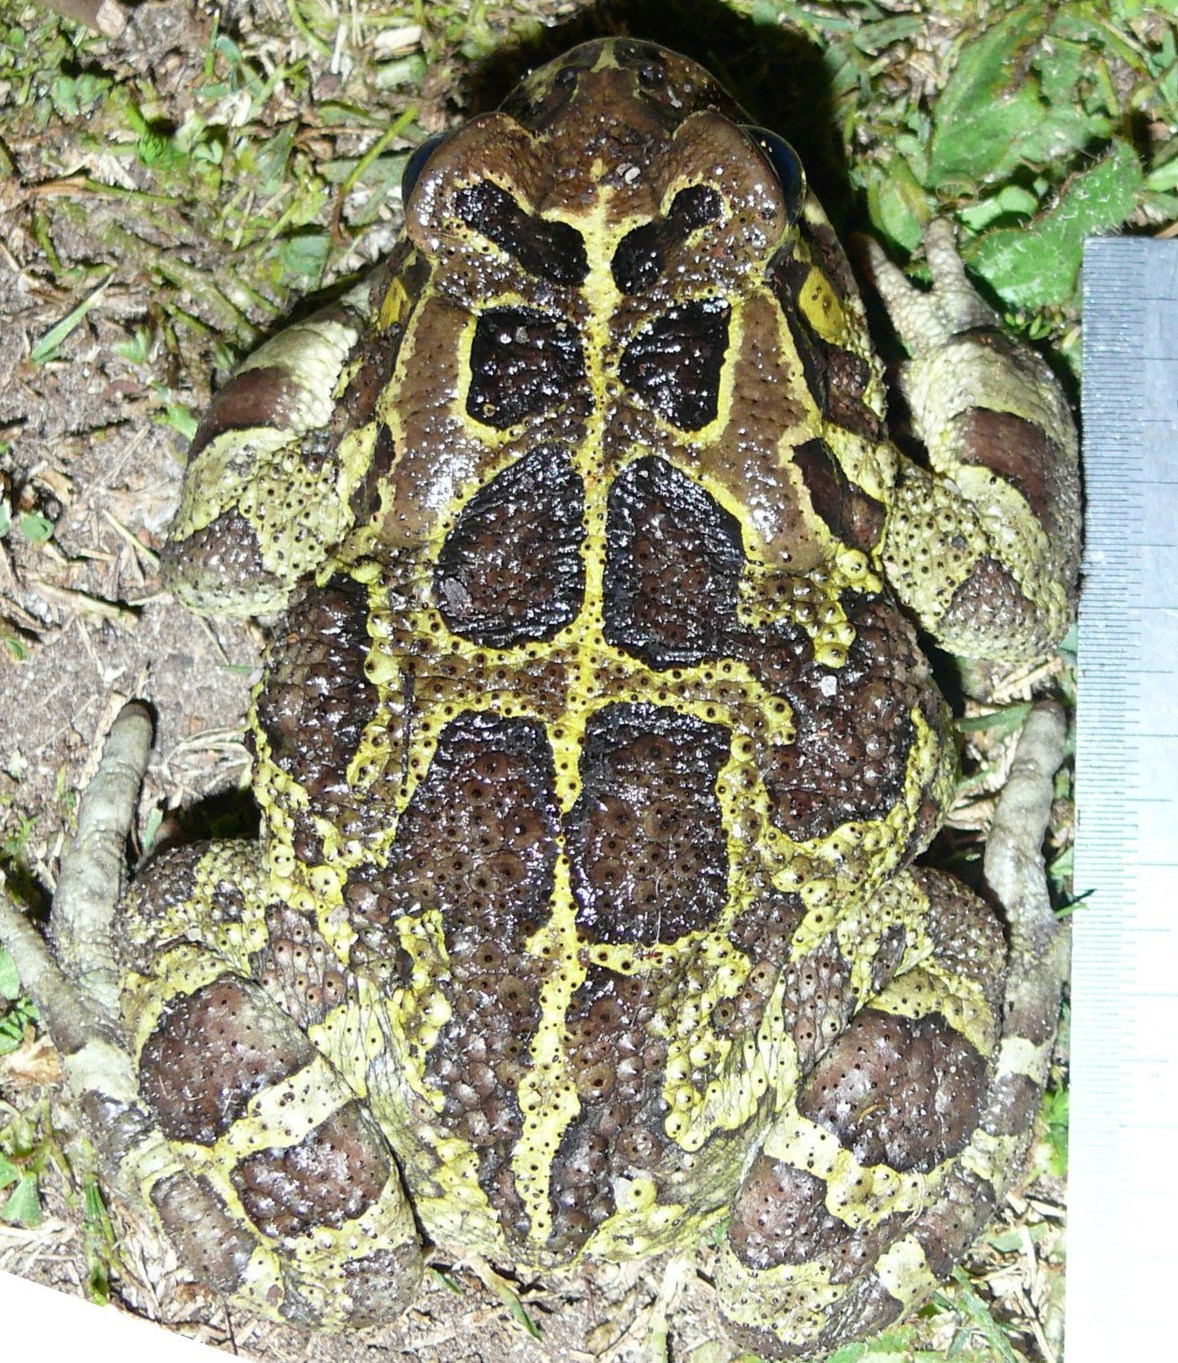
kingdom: Animalia
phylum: Chordata
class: Amphibia
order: Anura
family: Bufonidae
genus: Sclerophrys
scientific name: Sclerophrys pantherina
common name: Panther toad
